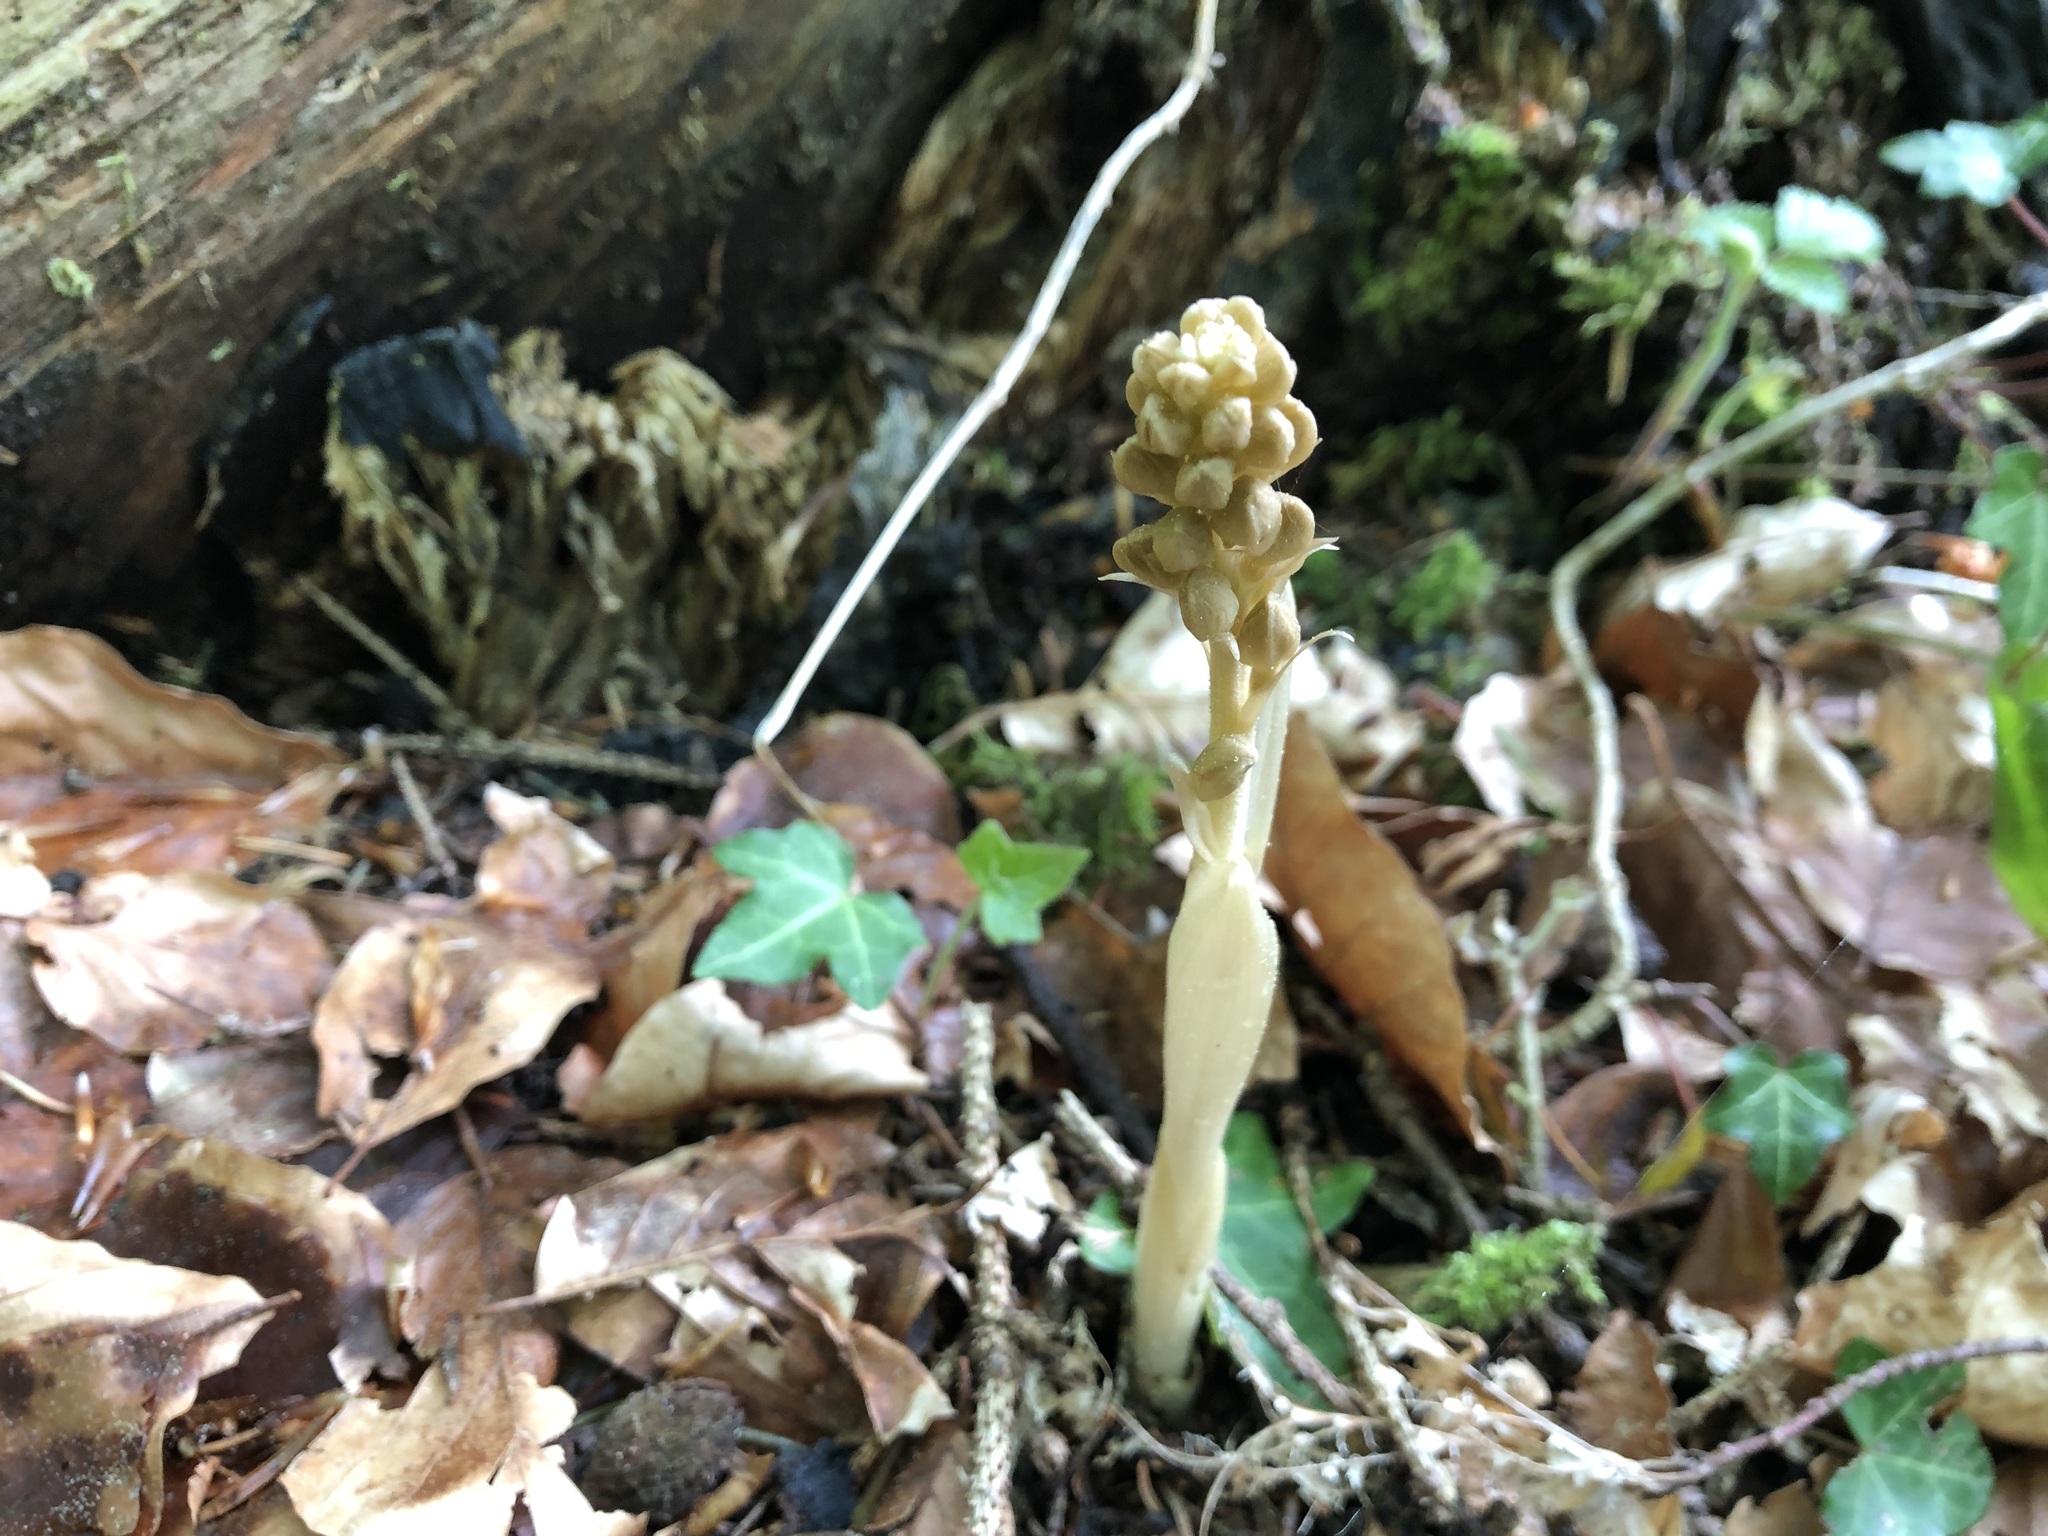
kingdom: Plantae
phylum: Tracheophyta
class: Liliopsida
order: Asparagales
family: Orchidaceae
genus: Neottia
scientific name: Neottia nidus-avis
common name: Bird's-nest orchid
